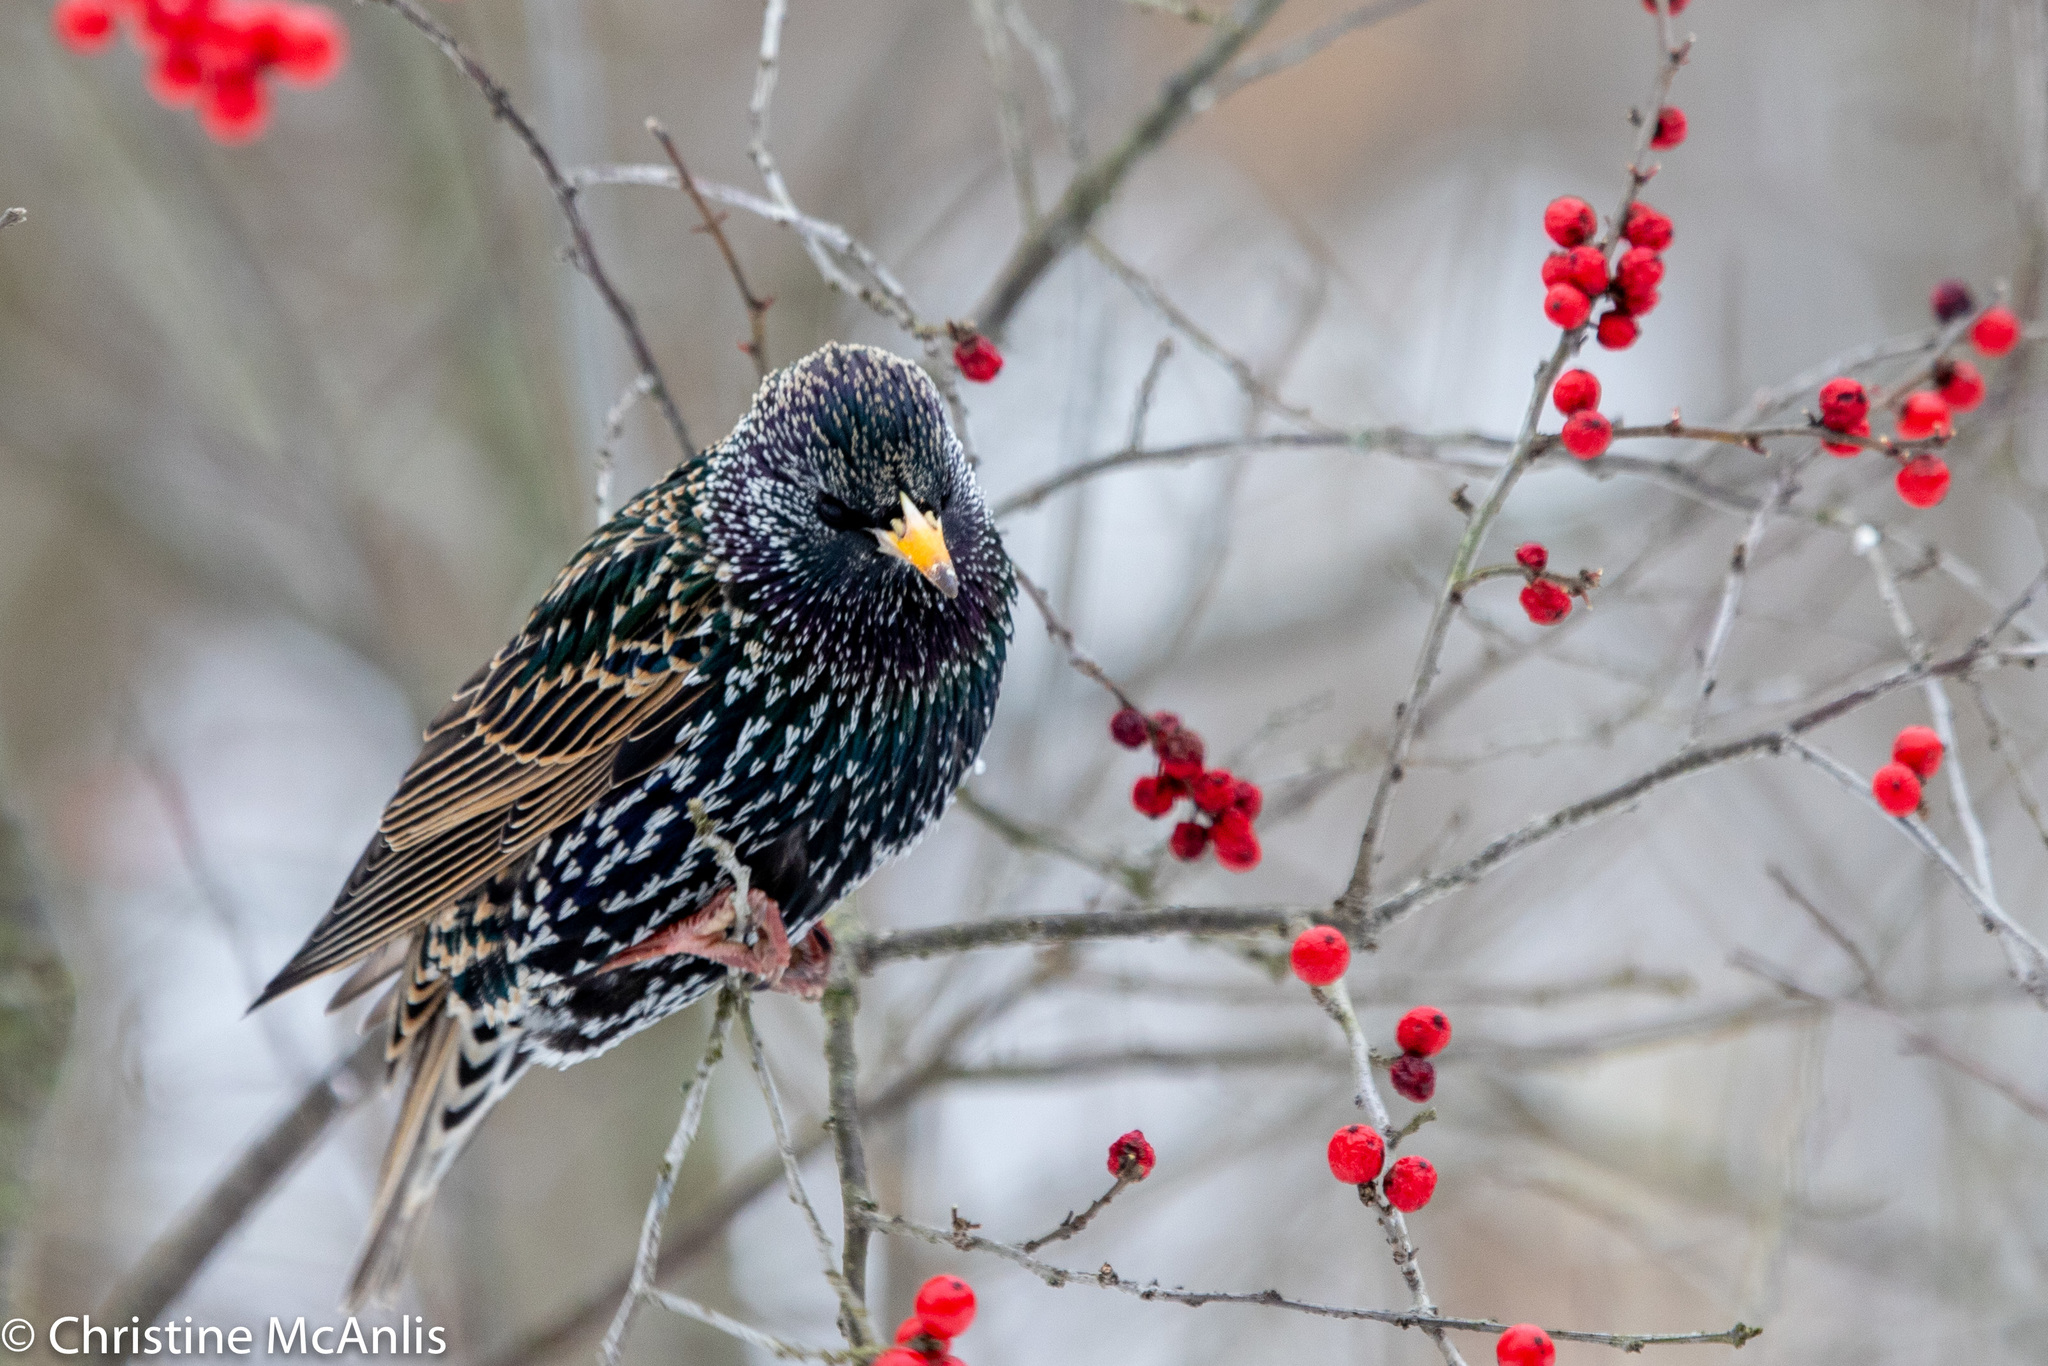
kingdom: Animalia
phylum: Chordata
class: Aves
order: Passeriformes
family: Sturnidae
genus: Sturnus
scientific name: Sturnus vulgaris
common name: Common starling
